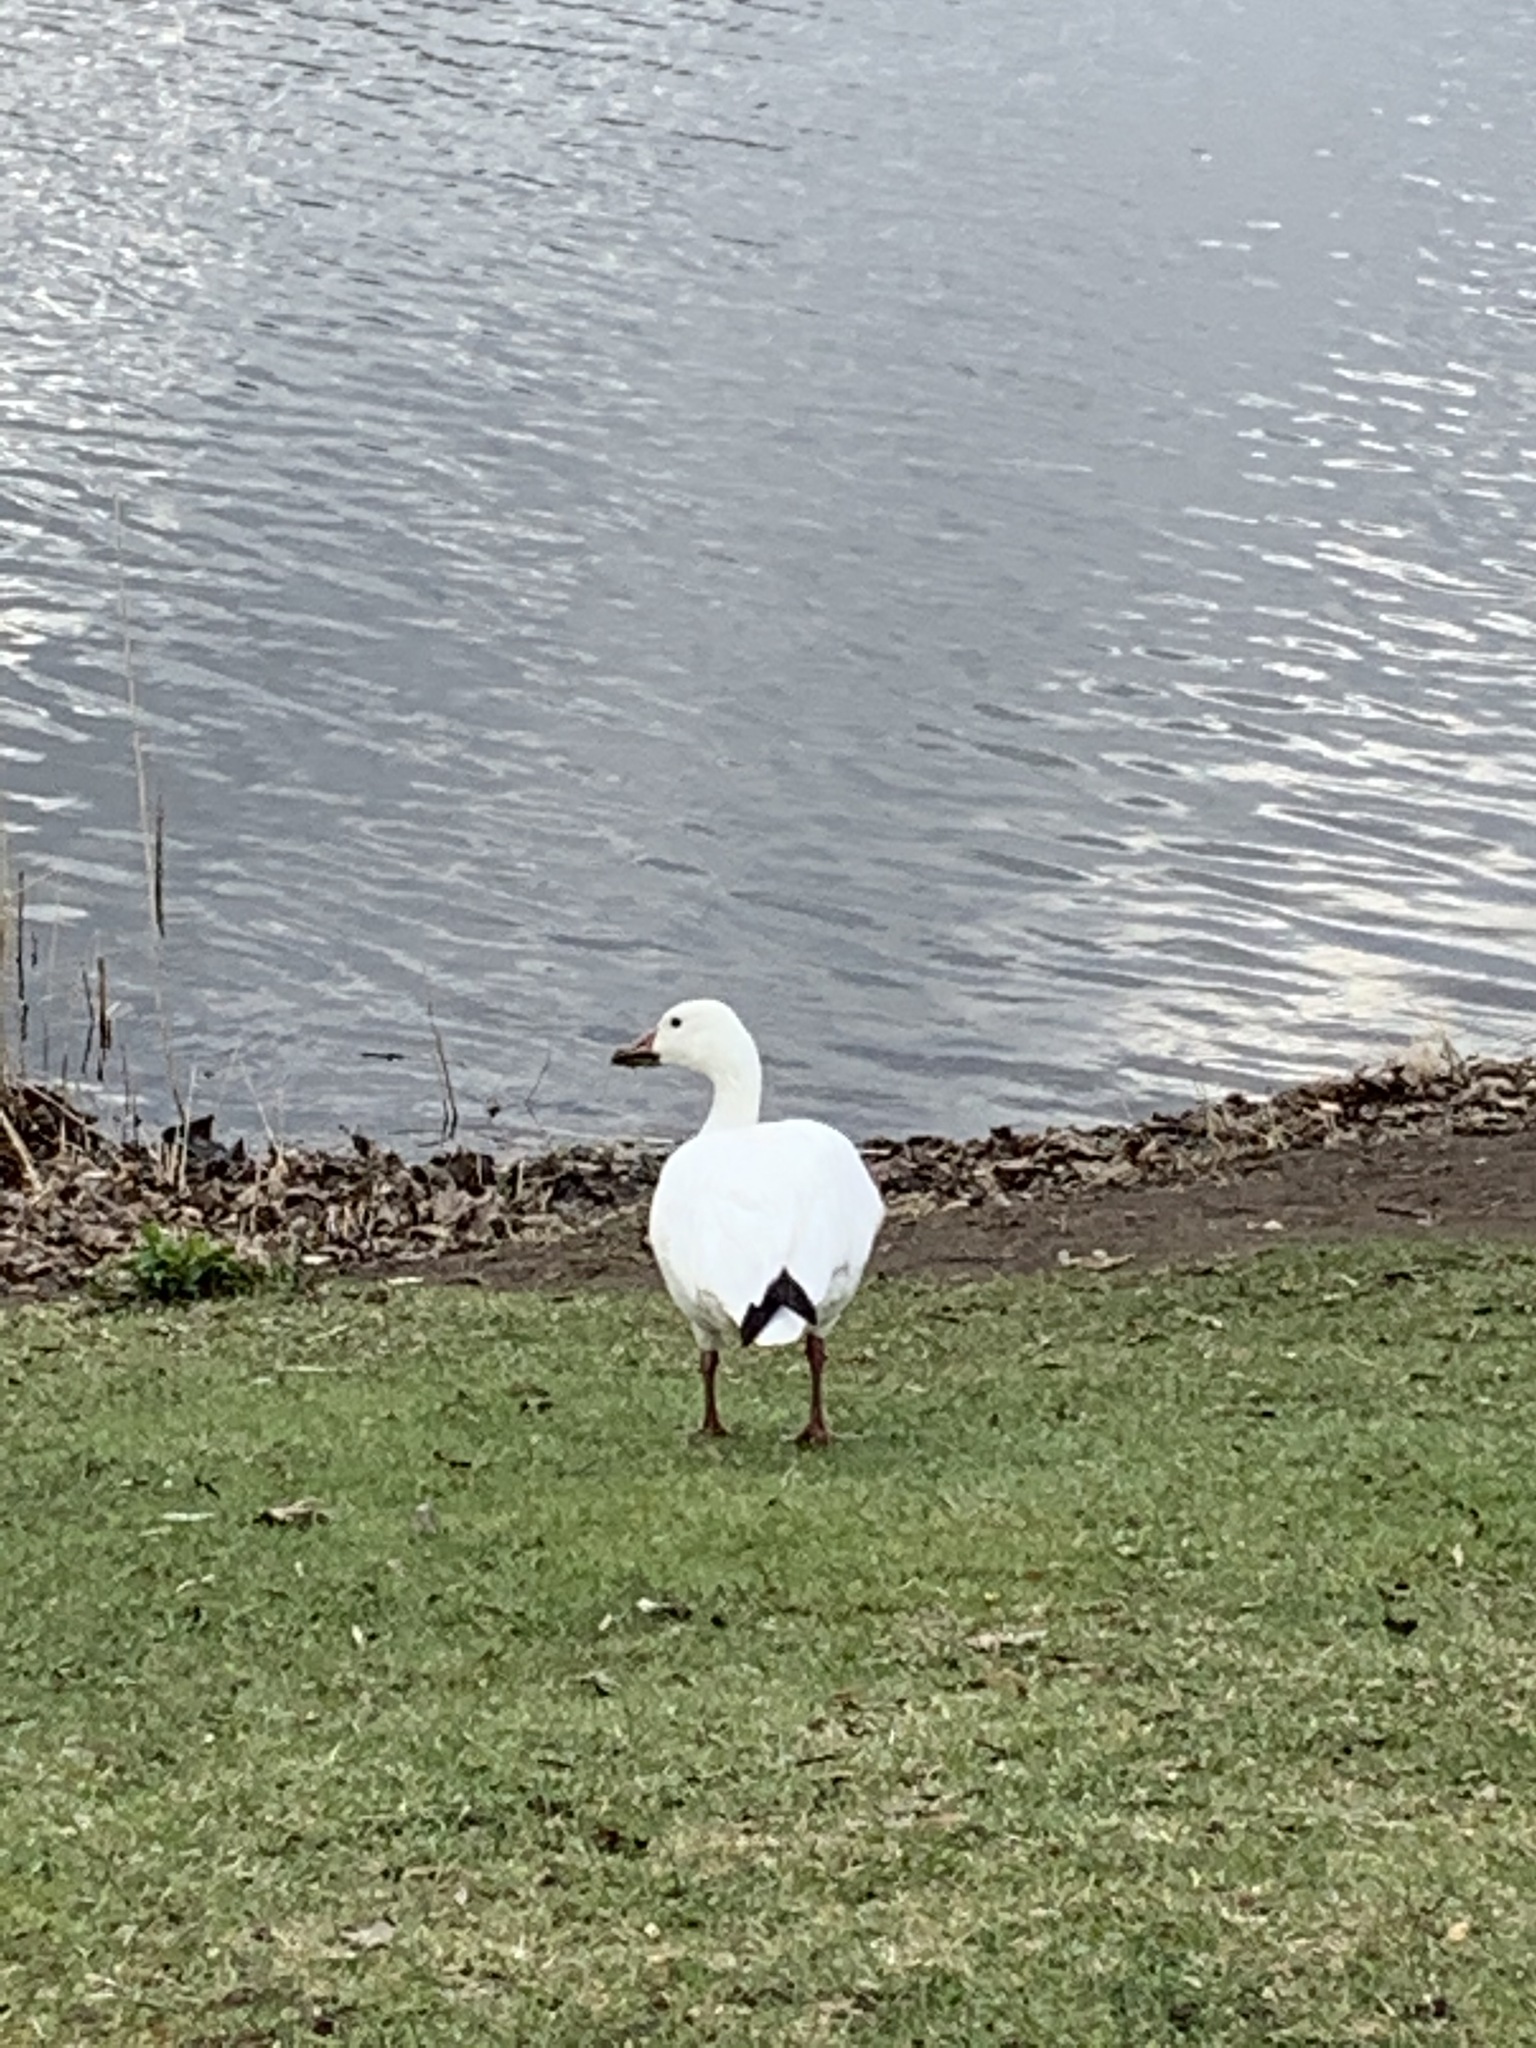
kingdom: Animalia
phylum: Chordata
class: Aves
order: Anseriformes
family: Anatidae
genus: Anser
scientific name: Anser caerulescens
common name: Snow goose
